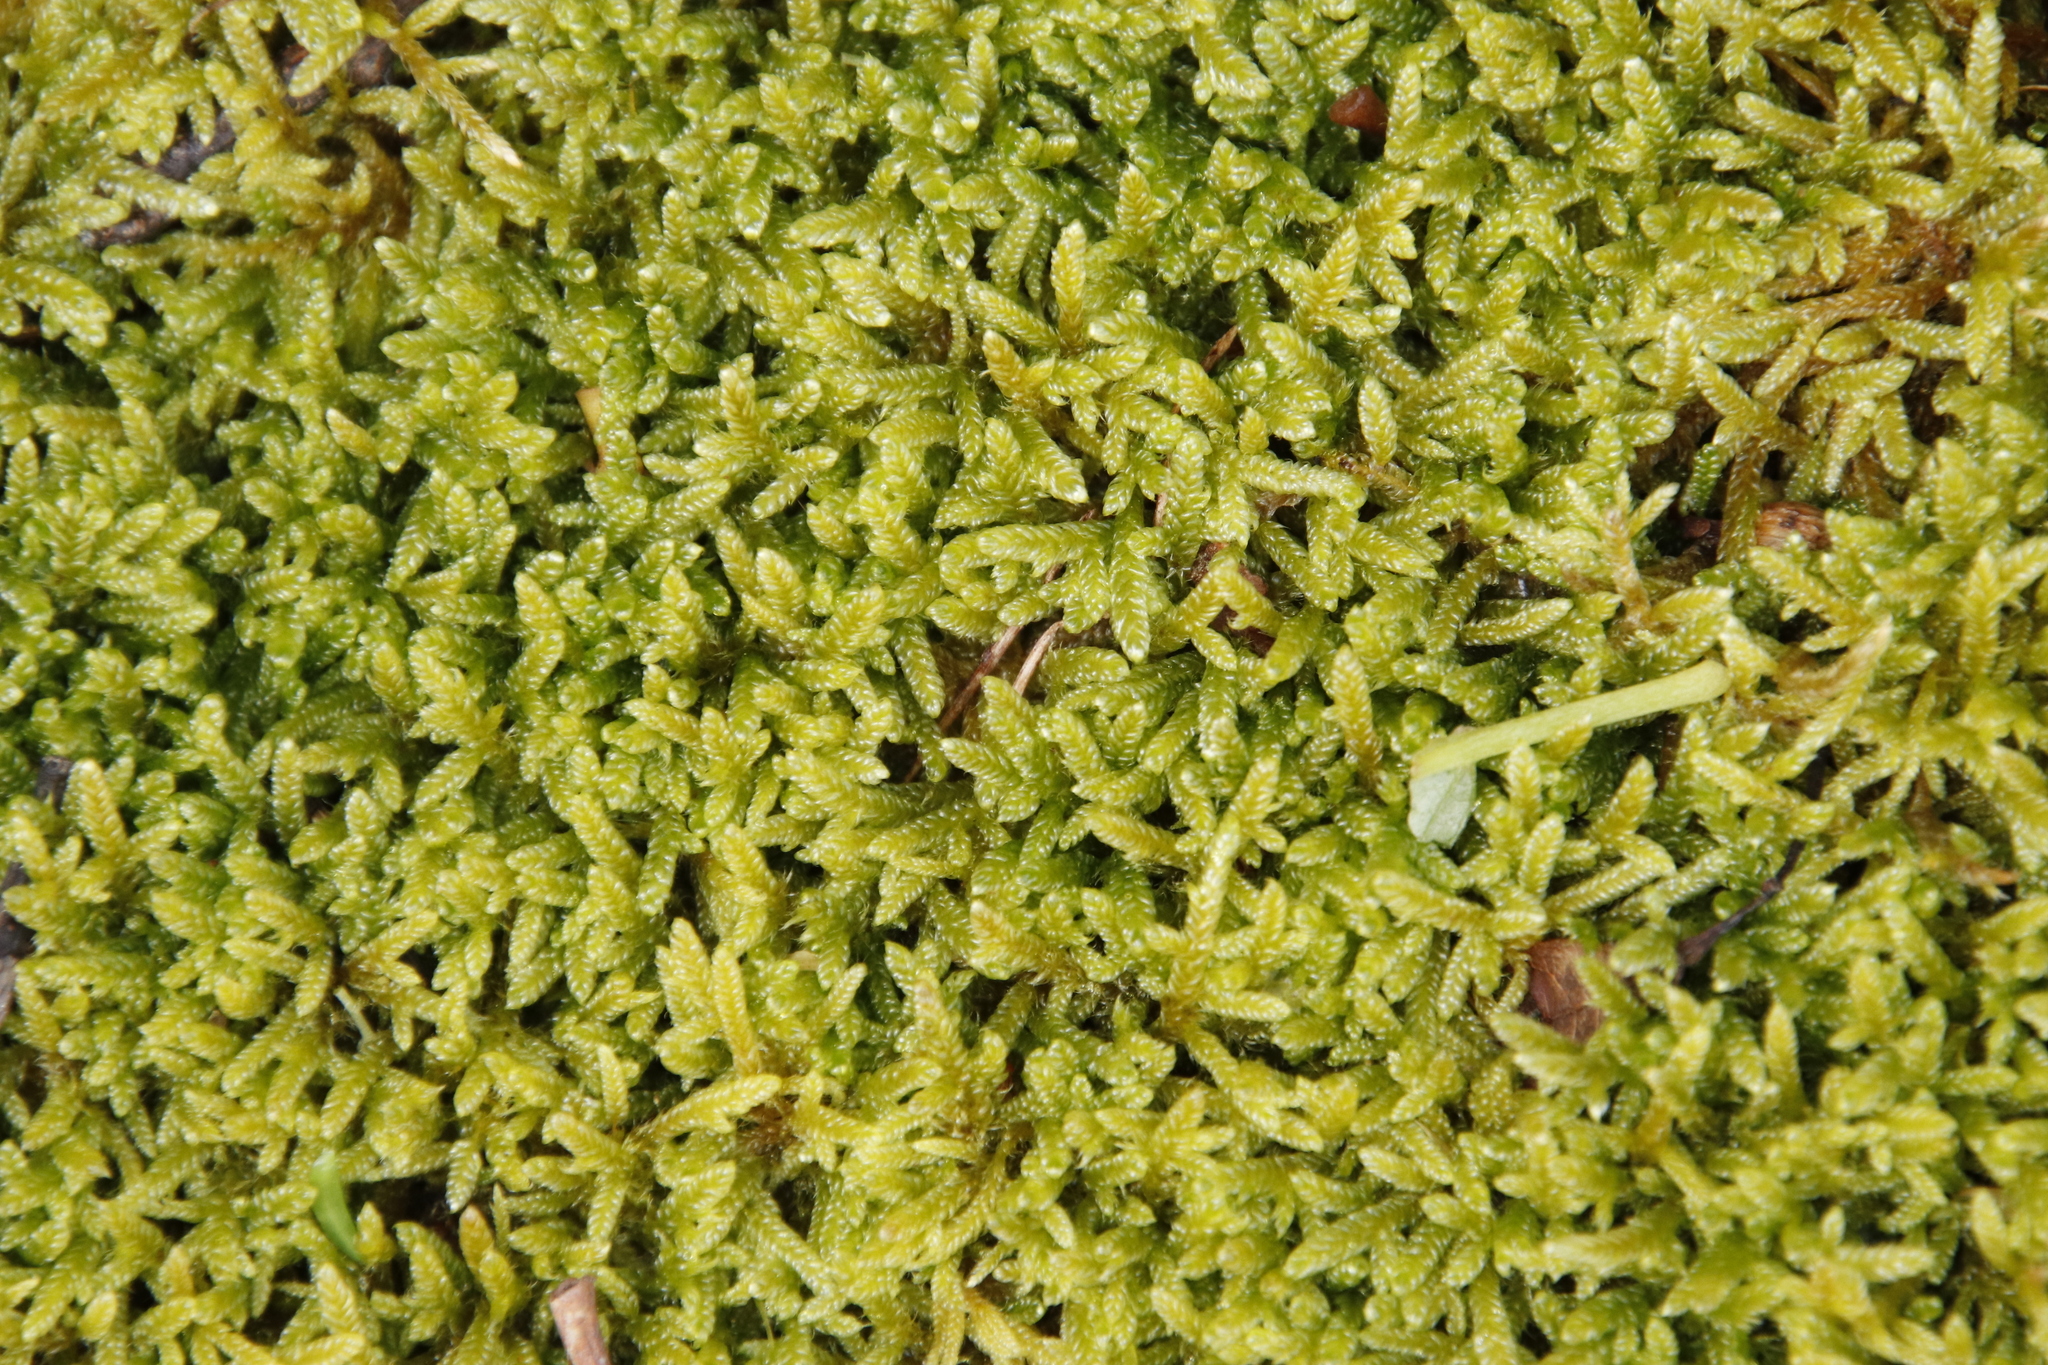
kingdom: Plantae
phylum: Bryophyta
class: Bryopsida
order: Hypnales
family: Hypnaceae
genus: Hypnum
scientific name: Hypnum cupressiforme
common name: Cypress-leaved plait-moss
